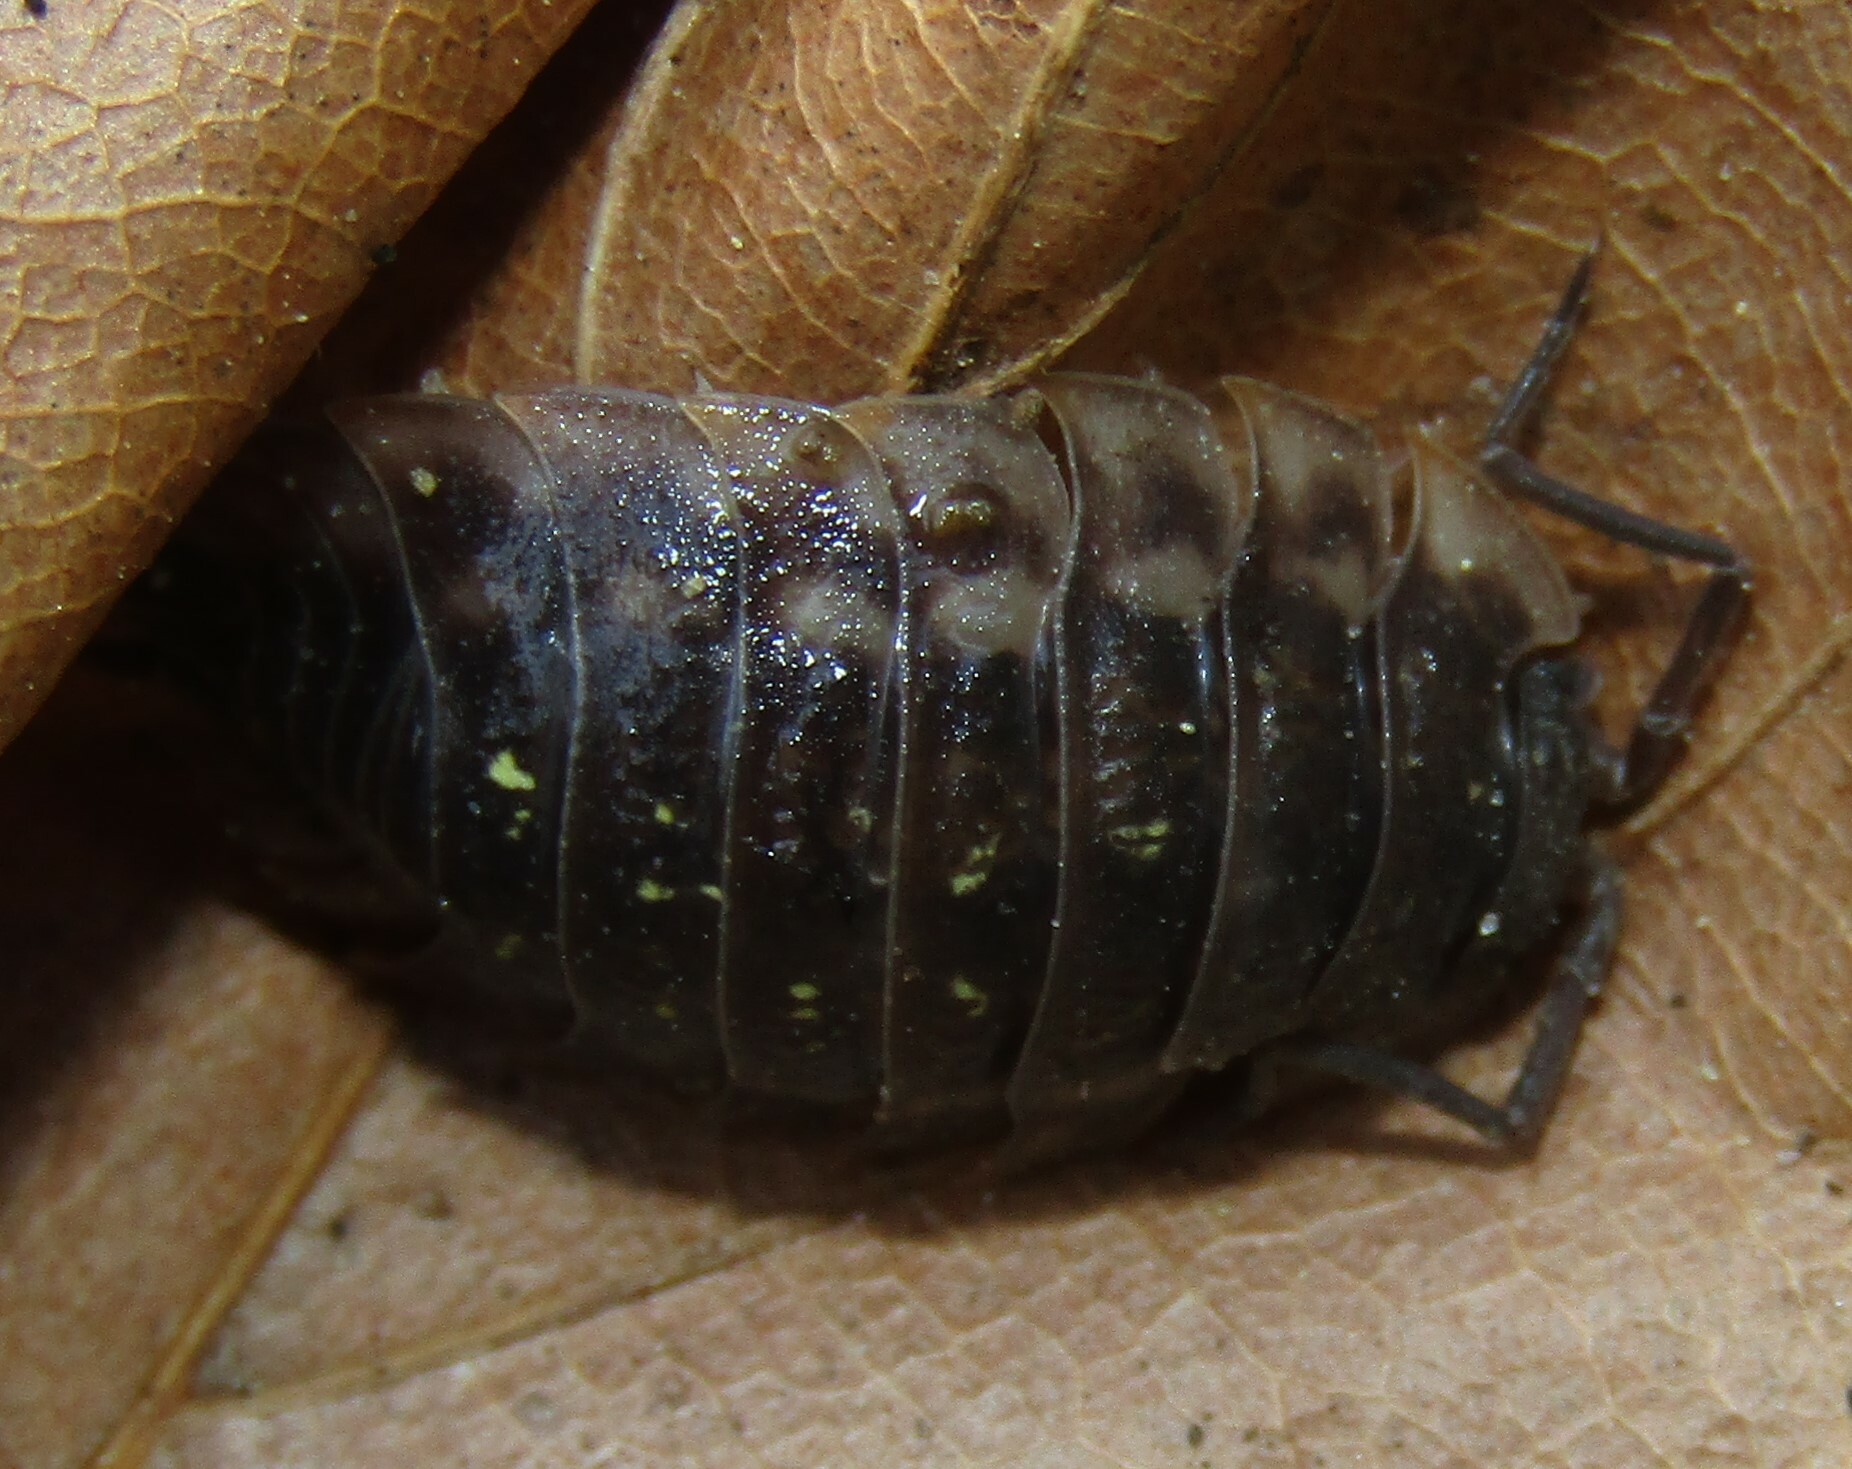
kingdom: Animalia
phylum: Arthropoda
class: Malacostraca
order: Isopoda
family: Oniscidae
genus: Oniscus
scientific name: Oniscus asellus
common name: Common shiny woodlouse
